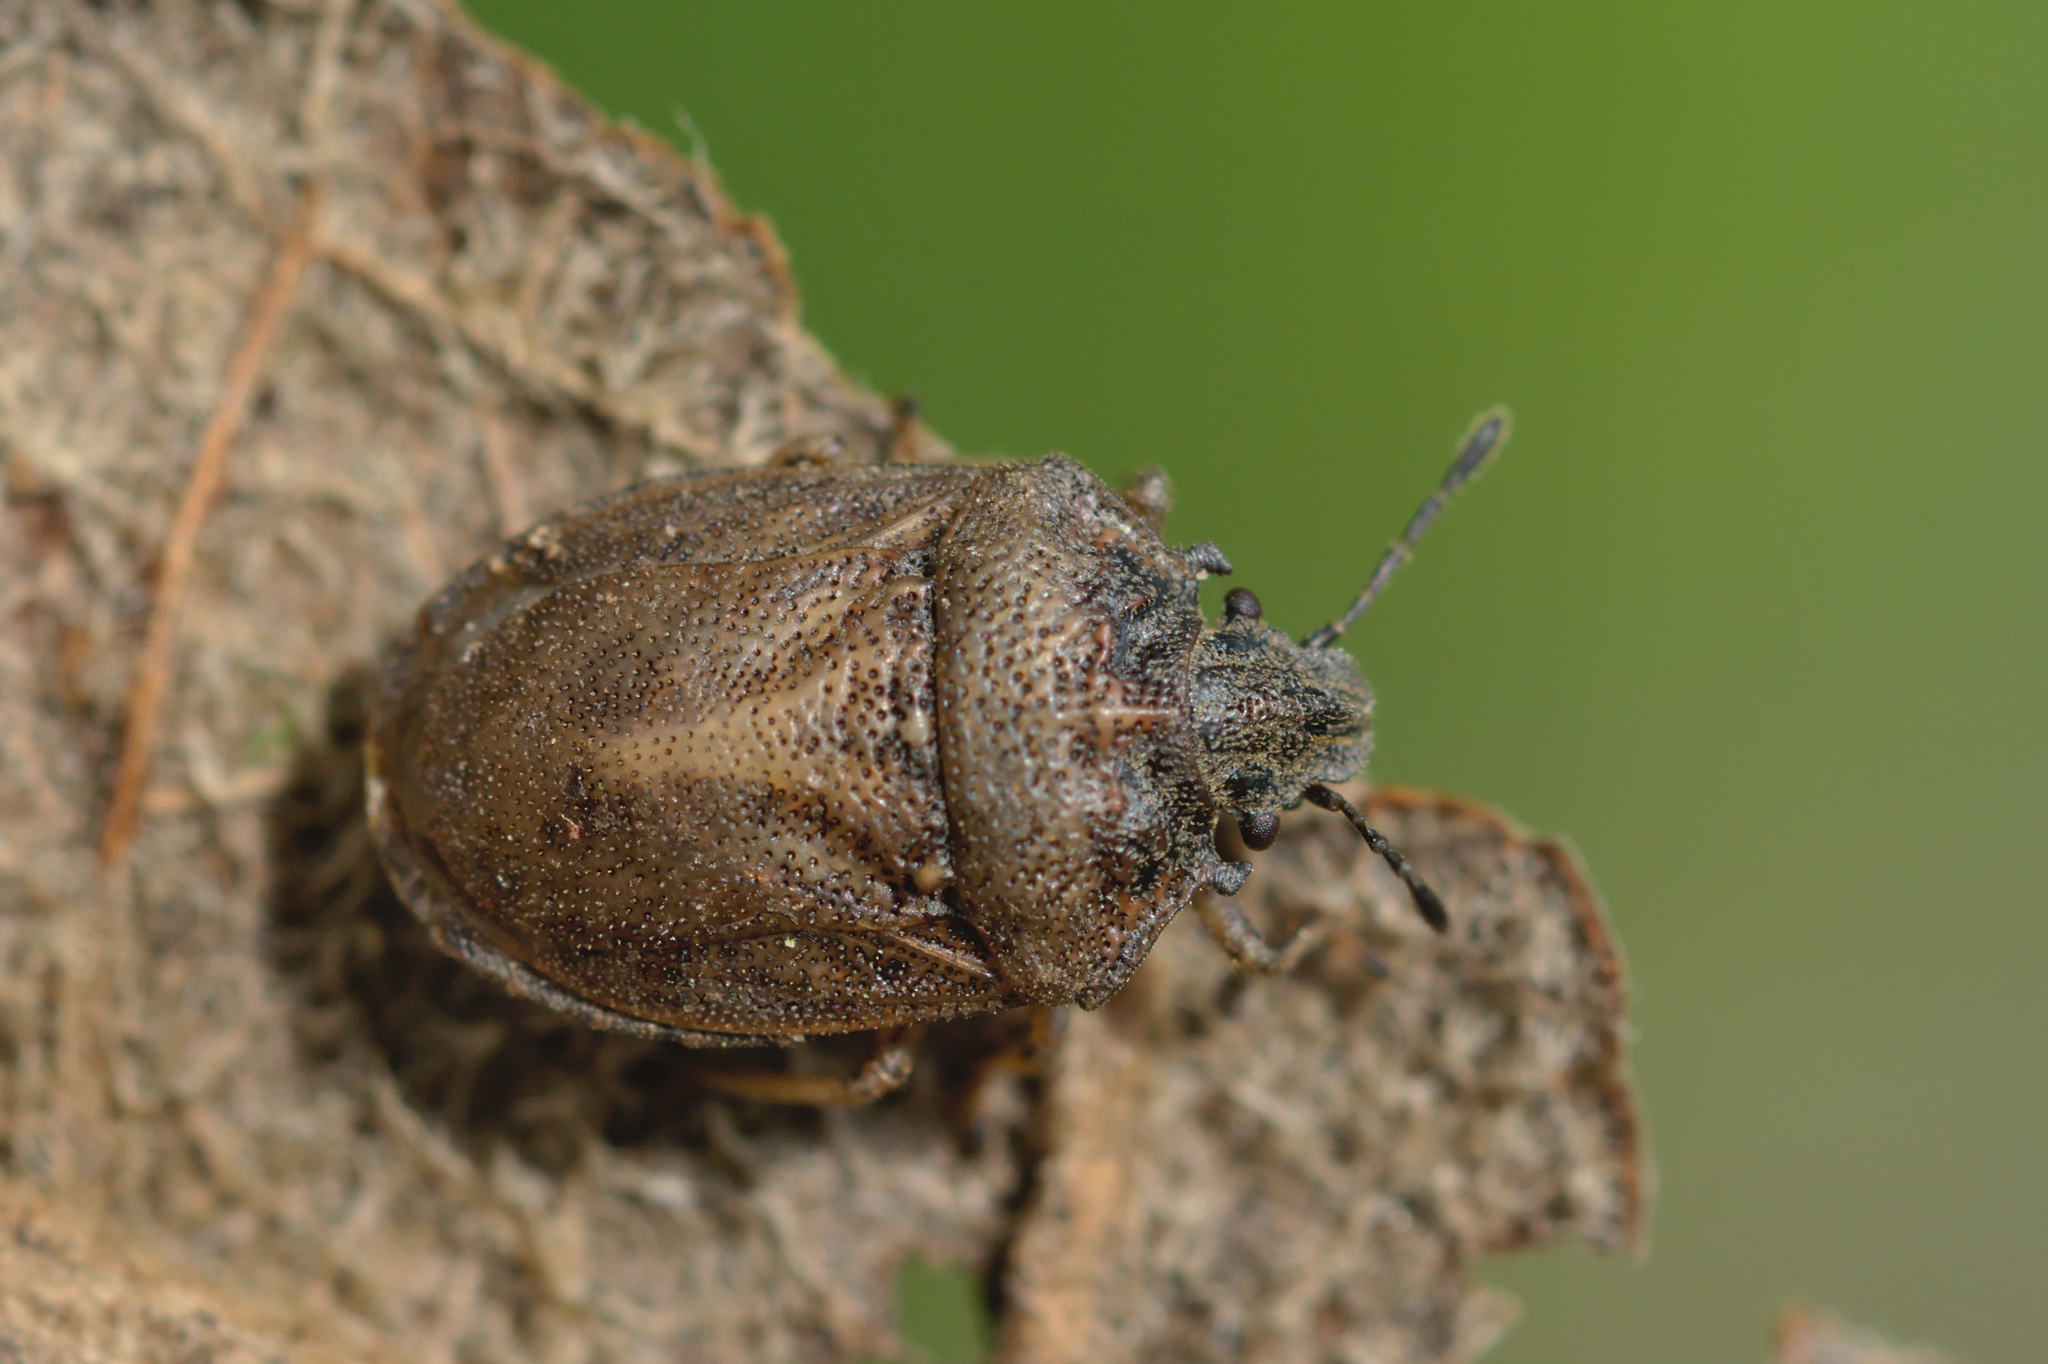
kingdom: Animalia
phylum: Arthropoda
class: Insecta
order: Hemiptera
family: Pentatomidae
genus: Podops
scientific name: Podops inunctus
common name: Turtle bug
